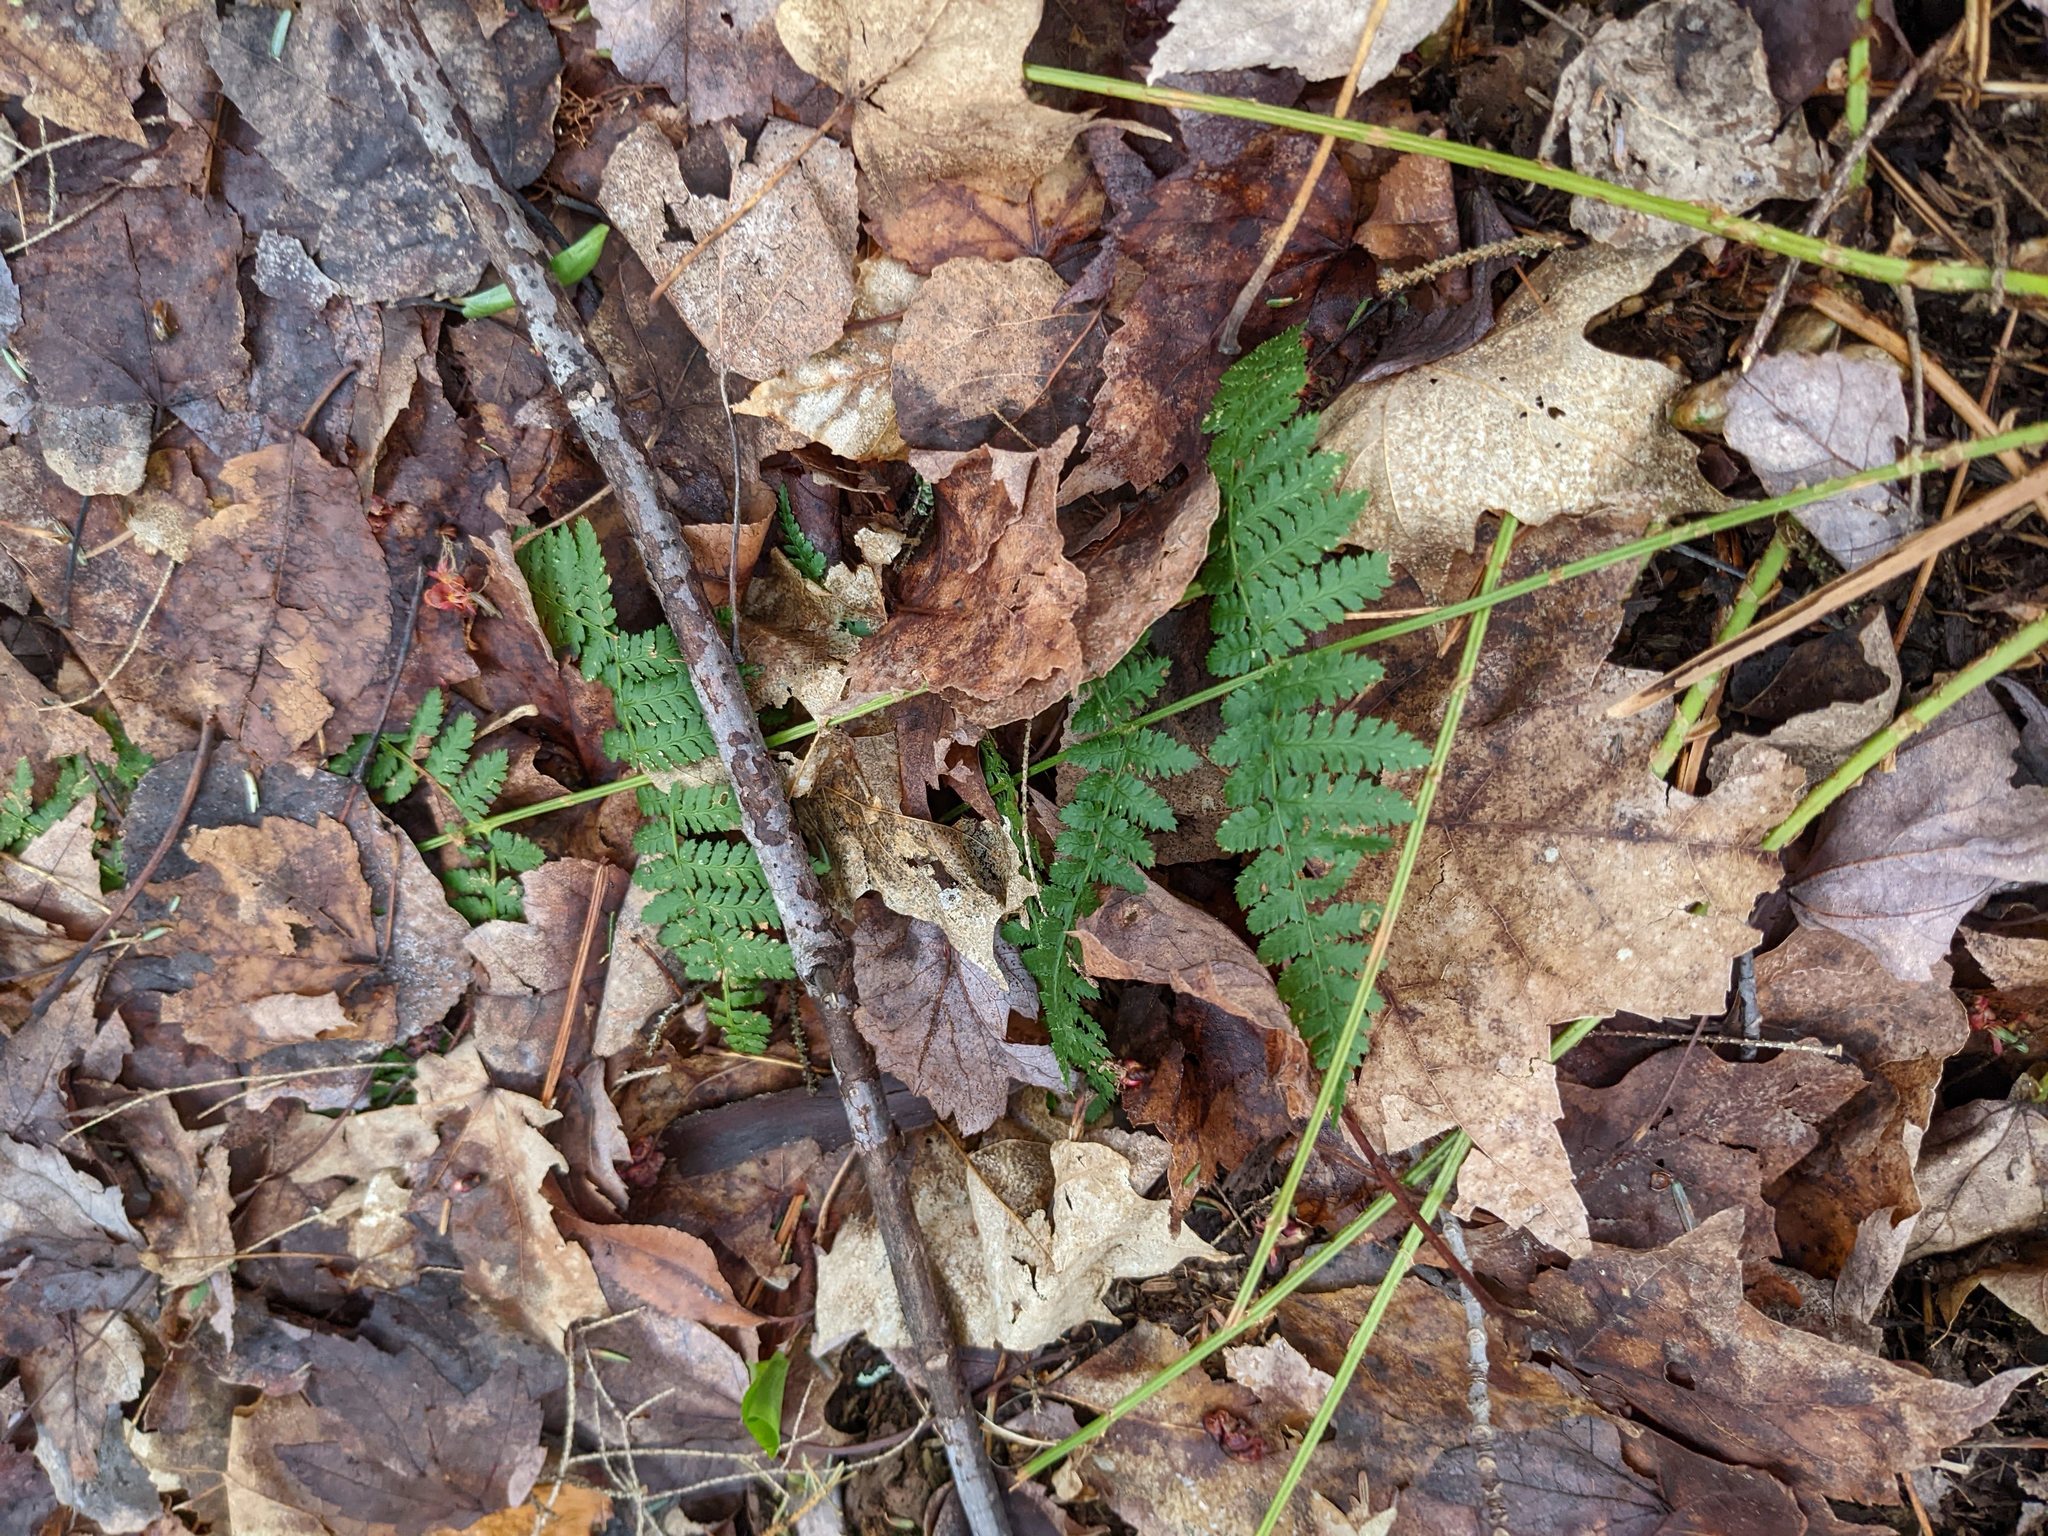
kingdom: Plantae
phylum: Tracheophyta
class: Polypodiopsida
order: Polypodiales
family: Dryopteridaceae
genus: Dryopteris
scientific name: Dryopteris intermedia
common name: Evergreen wood fern
